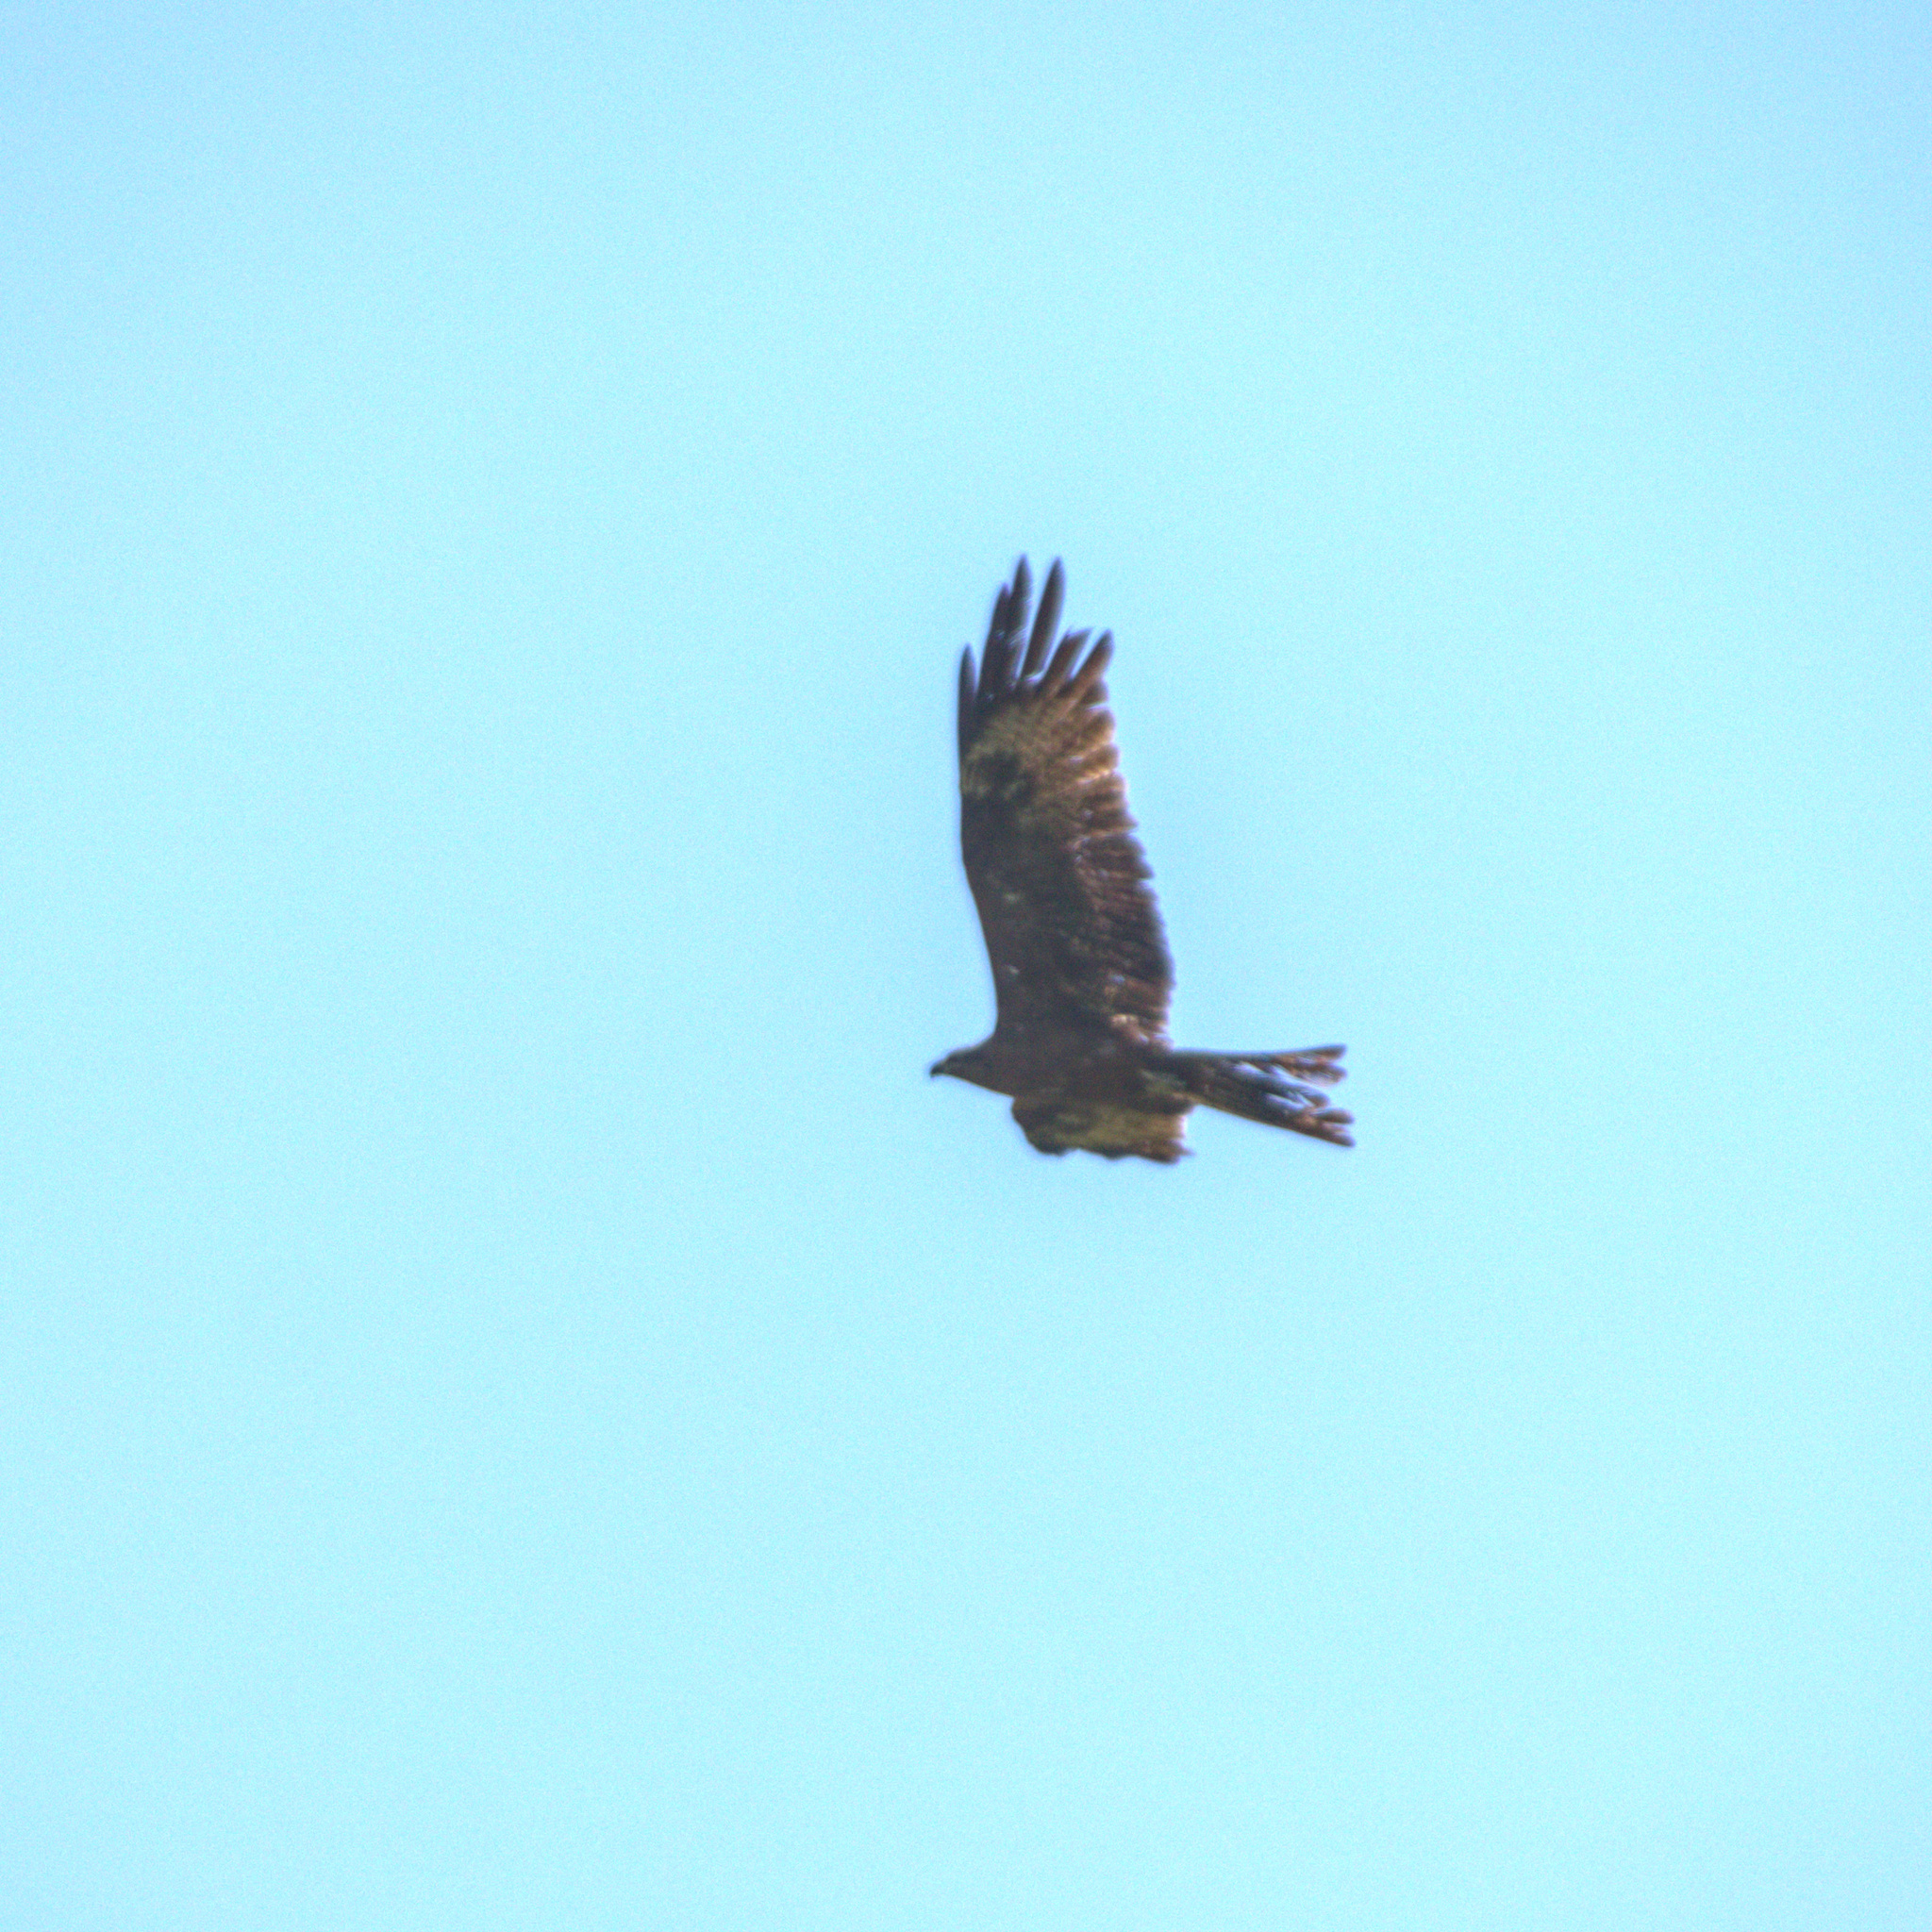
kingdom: Animalia
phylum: Chordata
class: Aves
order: Accipitriformes
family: Accipitridae
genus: Milvus
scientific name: Milvus migrans
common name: Black kite
